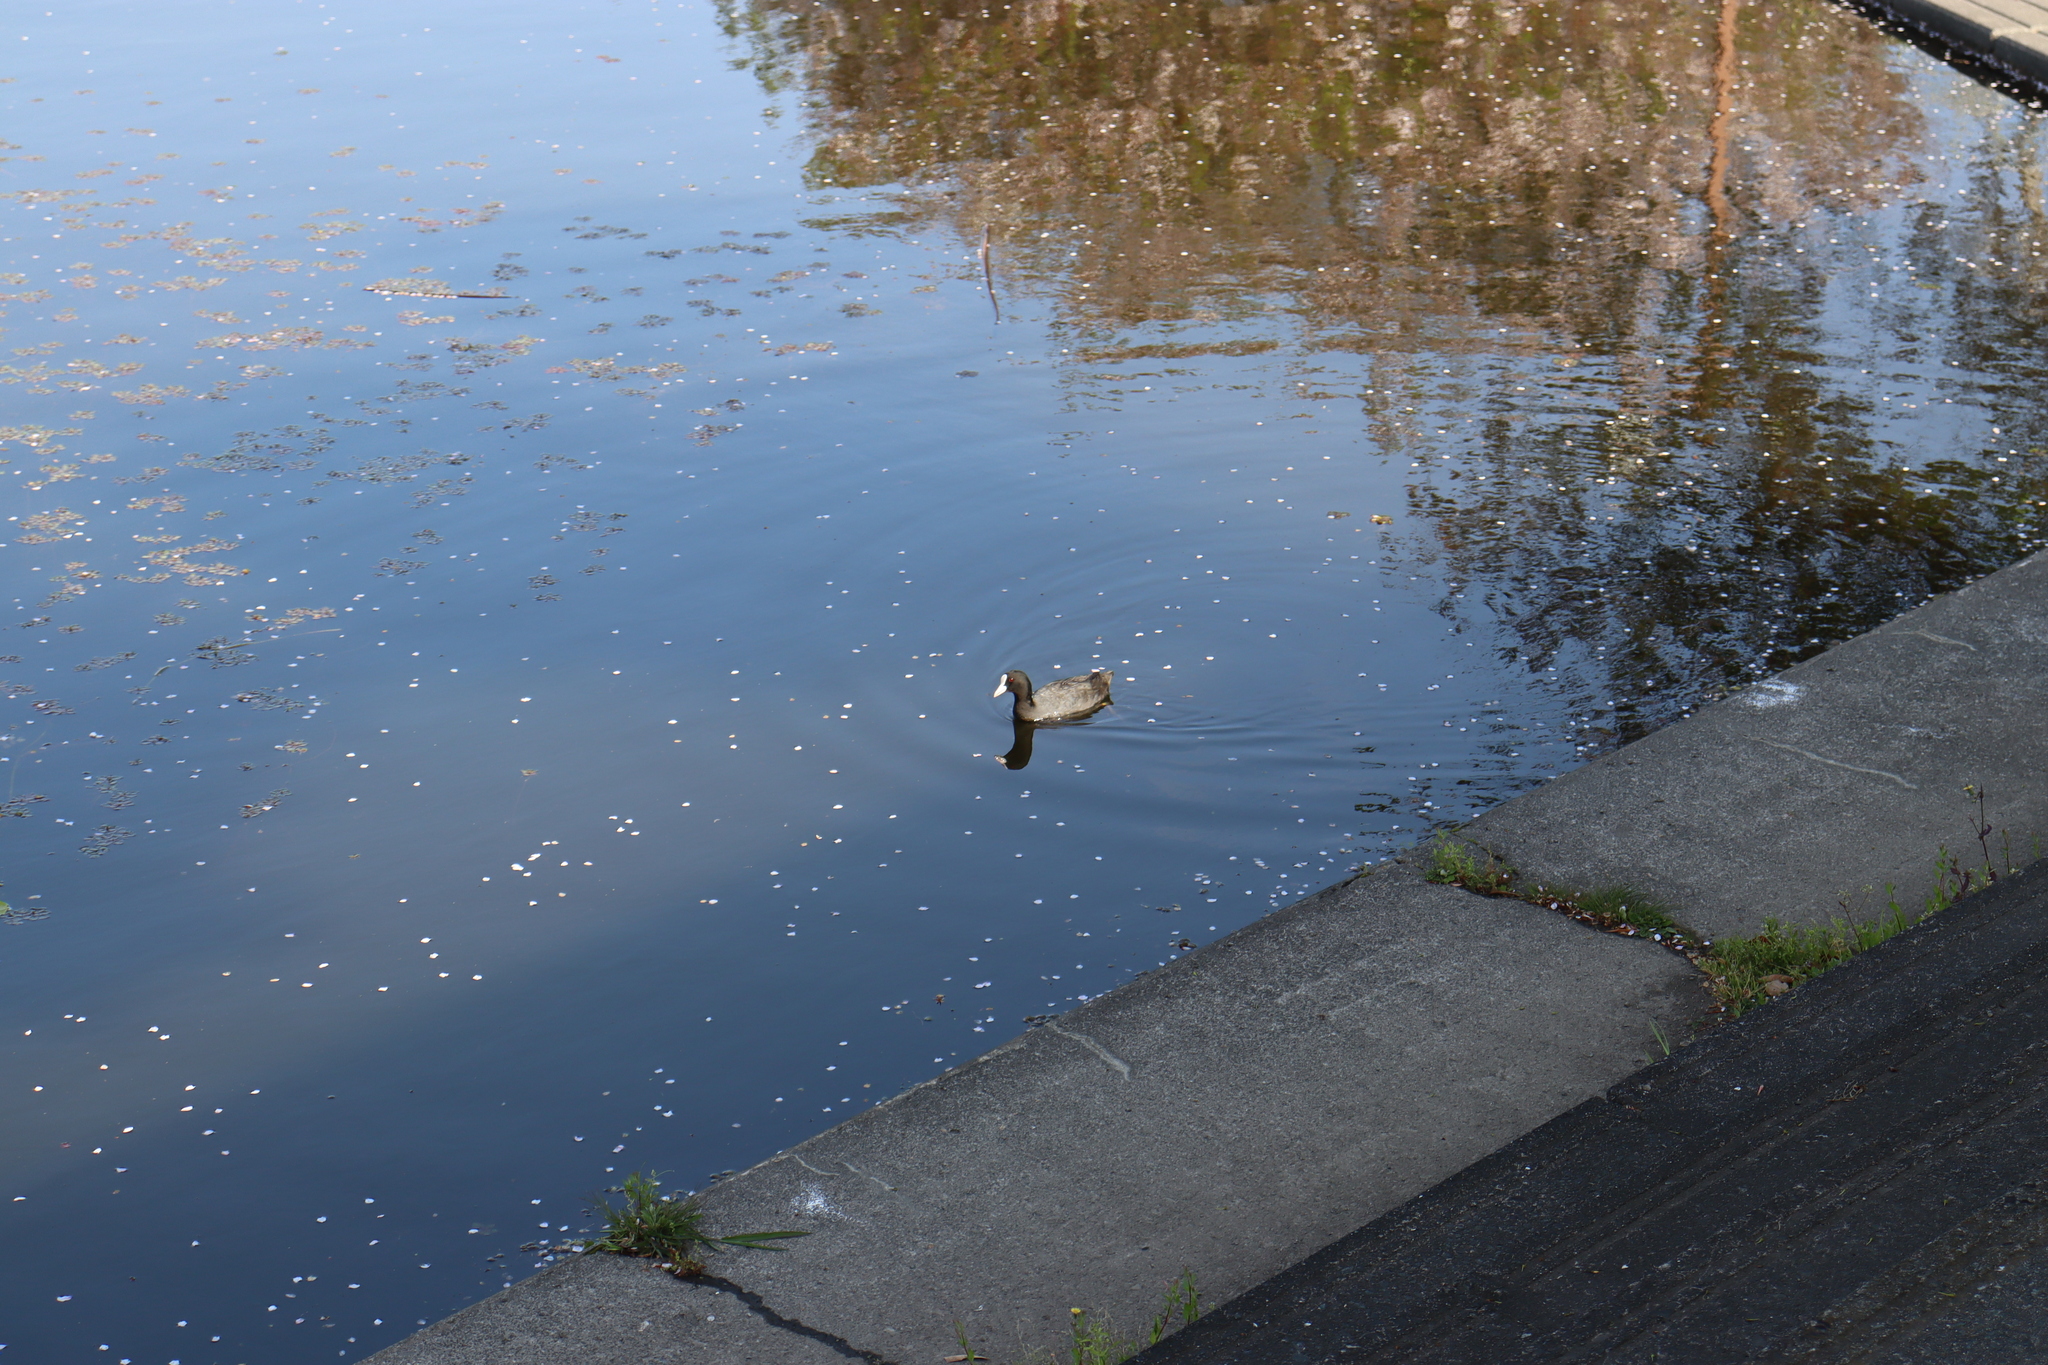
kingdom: Animalia
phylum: Chordata
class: Aves
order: Gruiformes
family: Rallidae
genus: Fulica
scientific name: Fulica atra
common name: Eurasian coot
